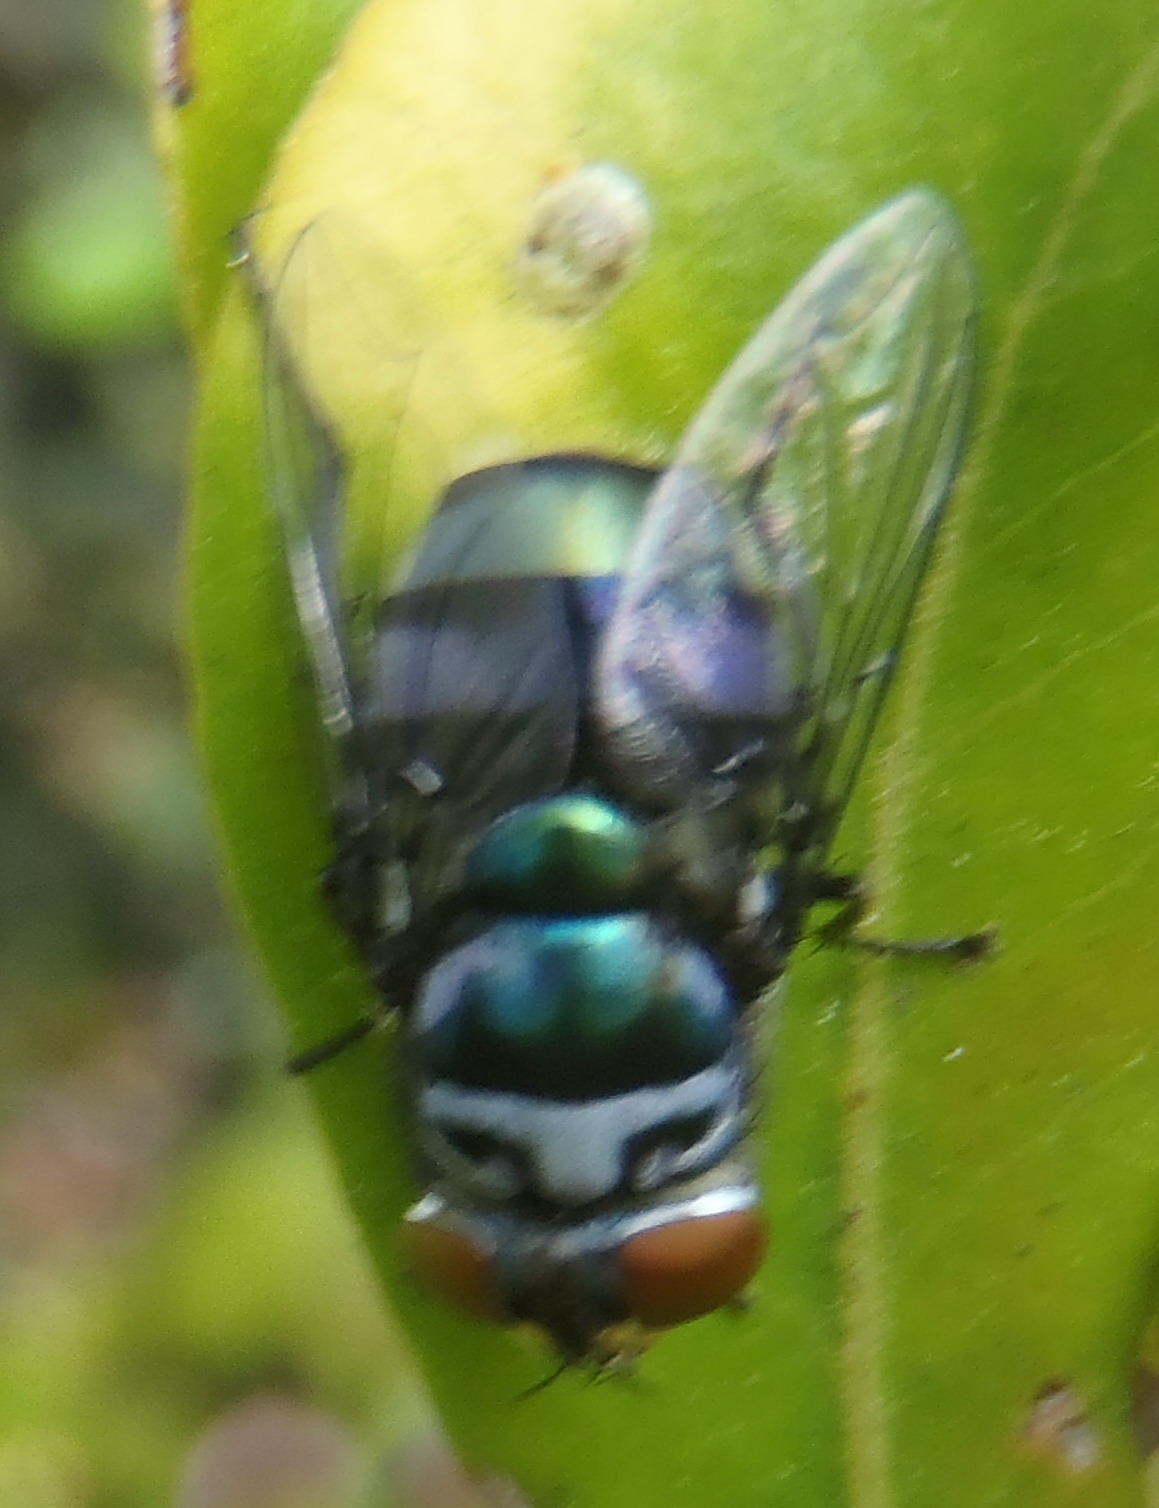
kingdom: Animalia
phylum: Arthropoda
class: Insecta
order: Diptera
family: Calliphoridae
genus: Chrysomya
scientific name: Chrysomya chloropyga
